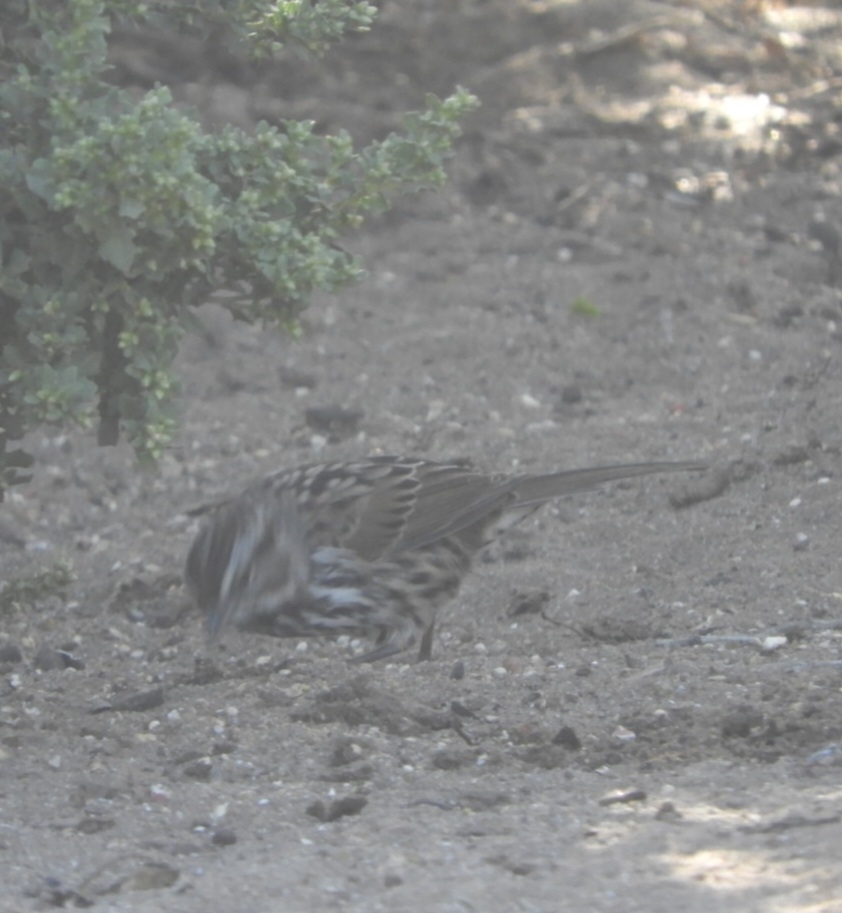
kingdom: Animalia
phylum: Chordata
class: Aves
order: Passeriformes
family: Passerellidae
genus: Melospiza
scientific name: Melospiza melodia
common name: Song sparrow
